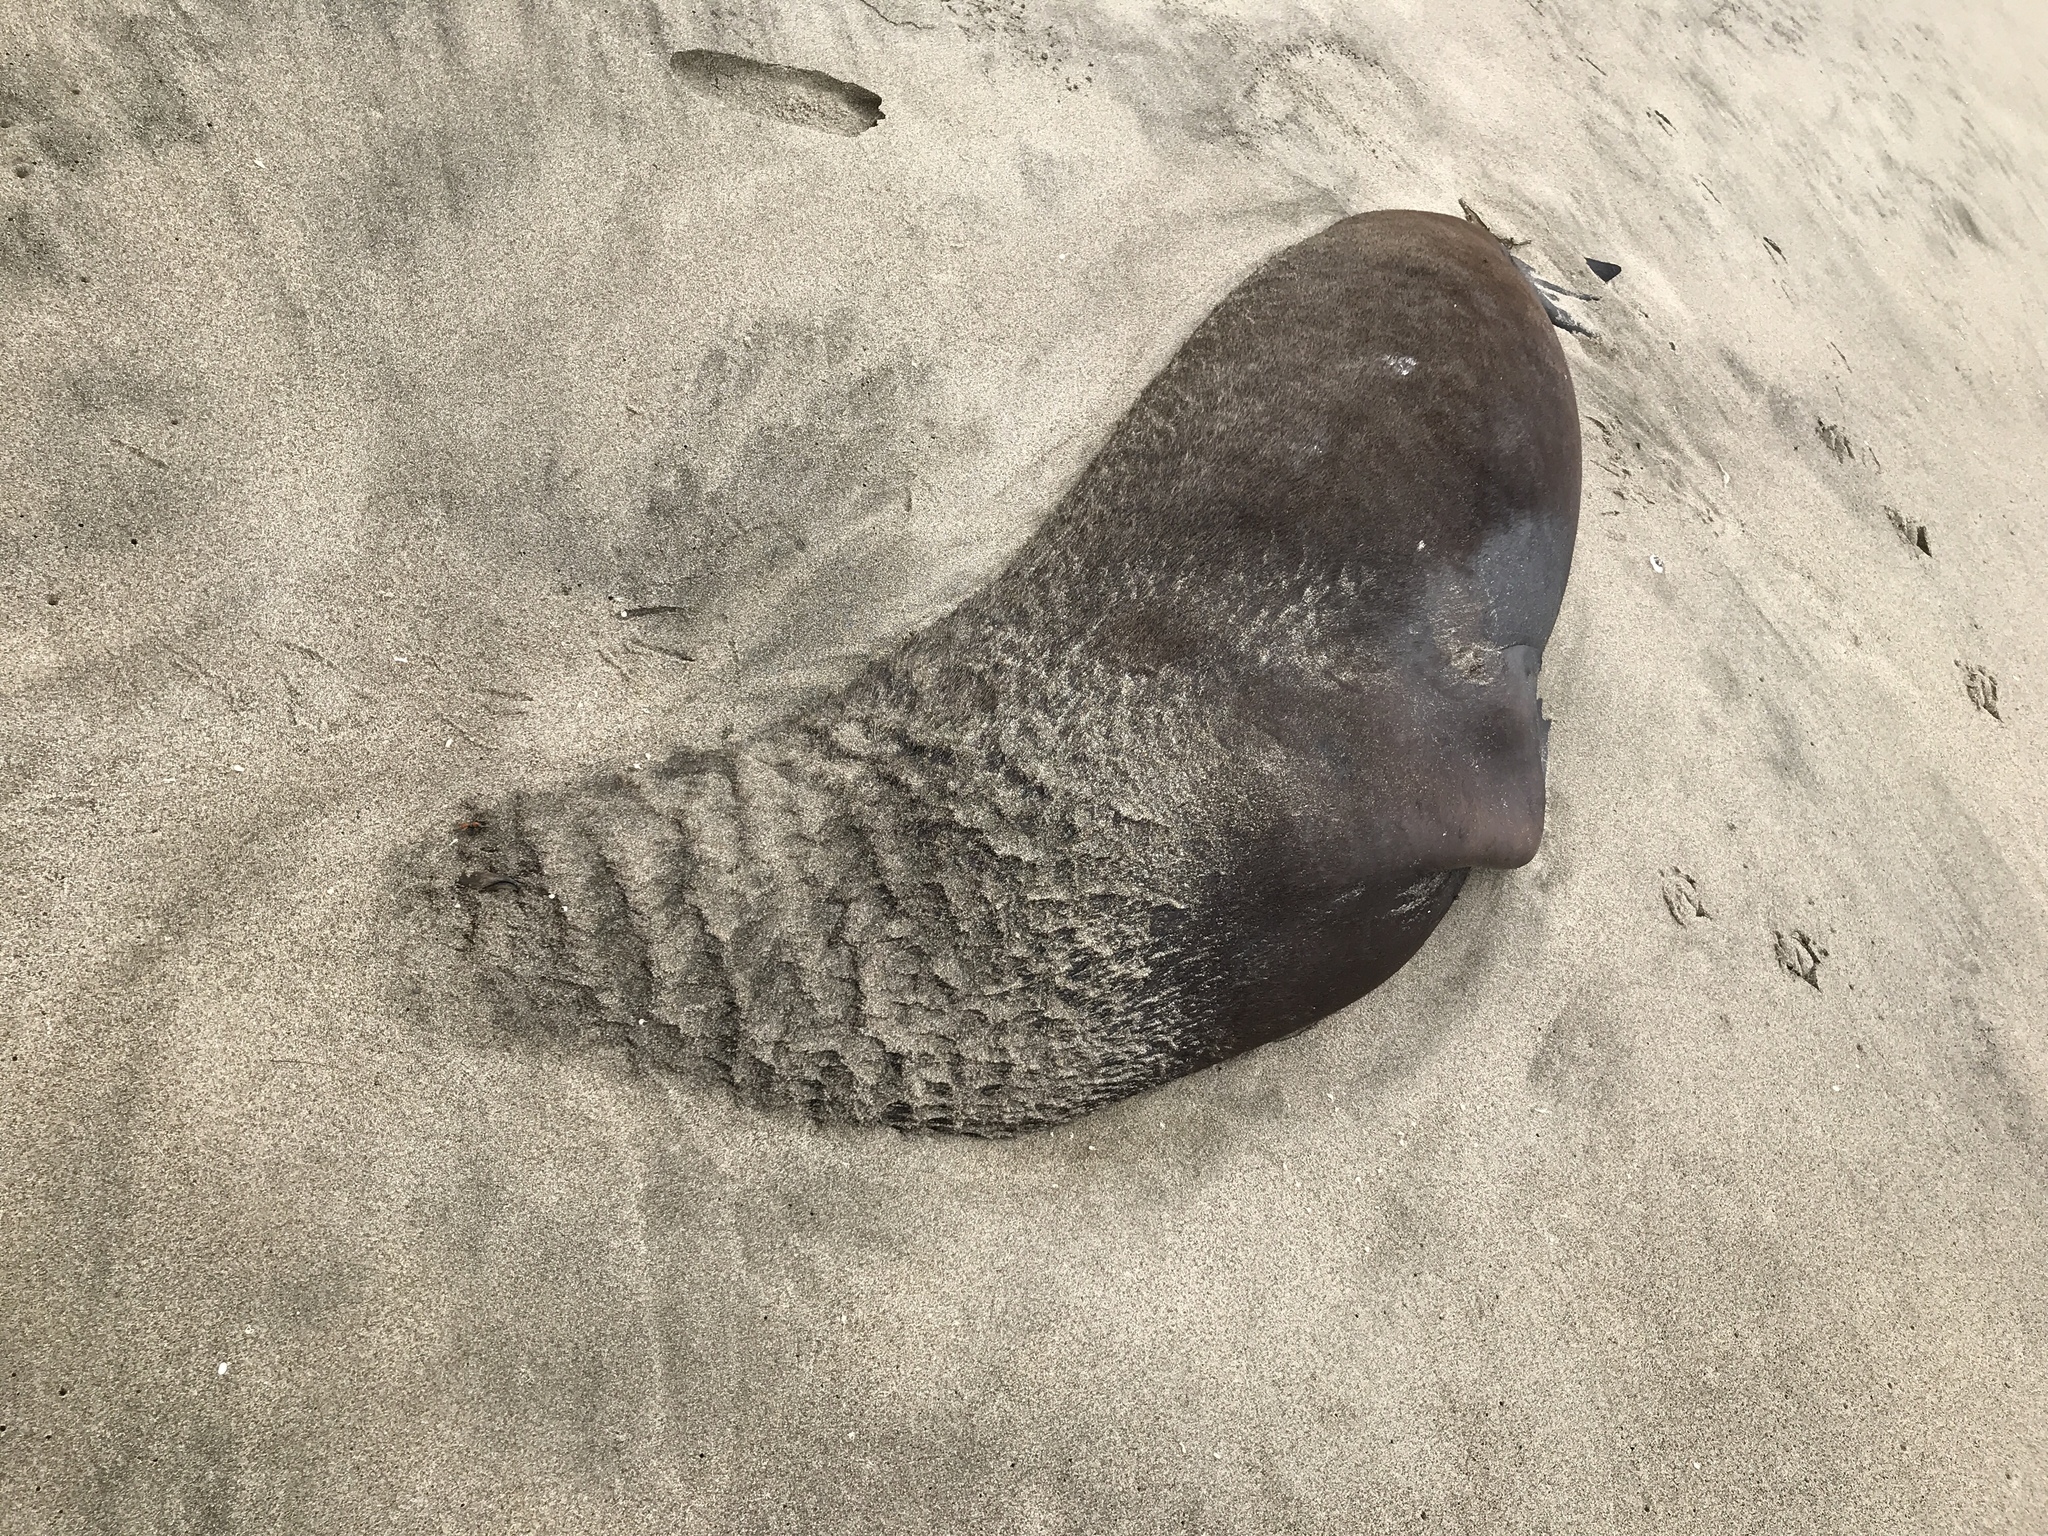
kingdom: Animalia
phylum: Chordata
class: Mammalia
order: Carnivora
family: Otariidae
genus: Zalophus
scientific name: Zalophus californianus
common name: California sea lion
